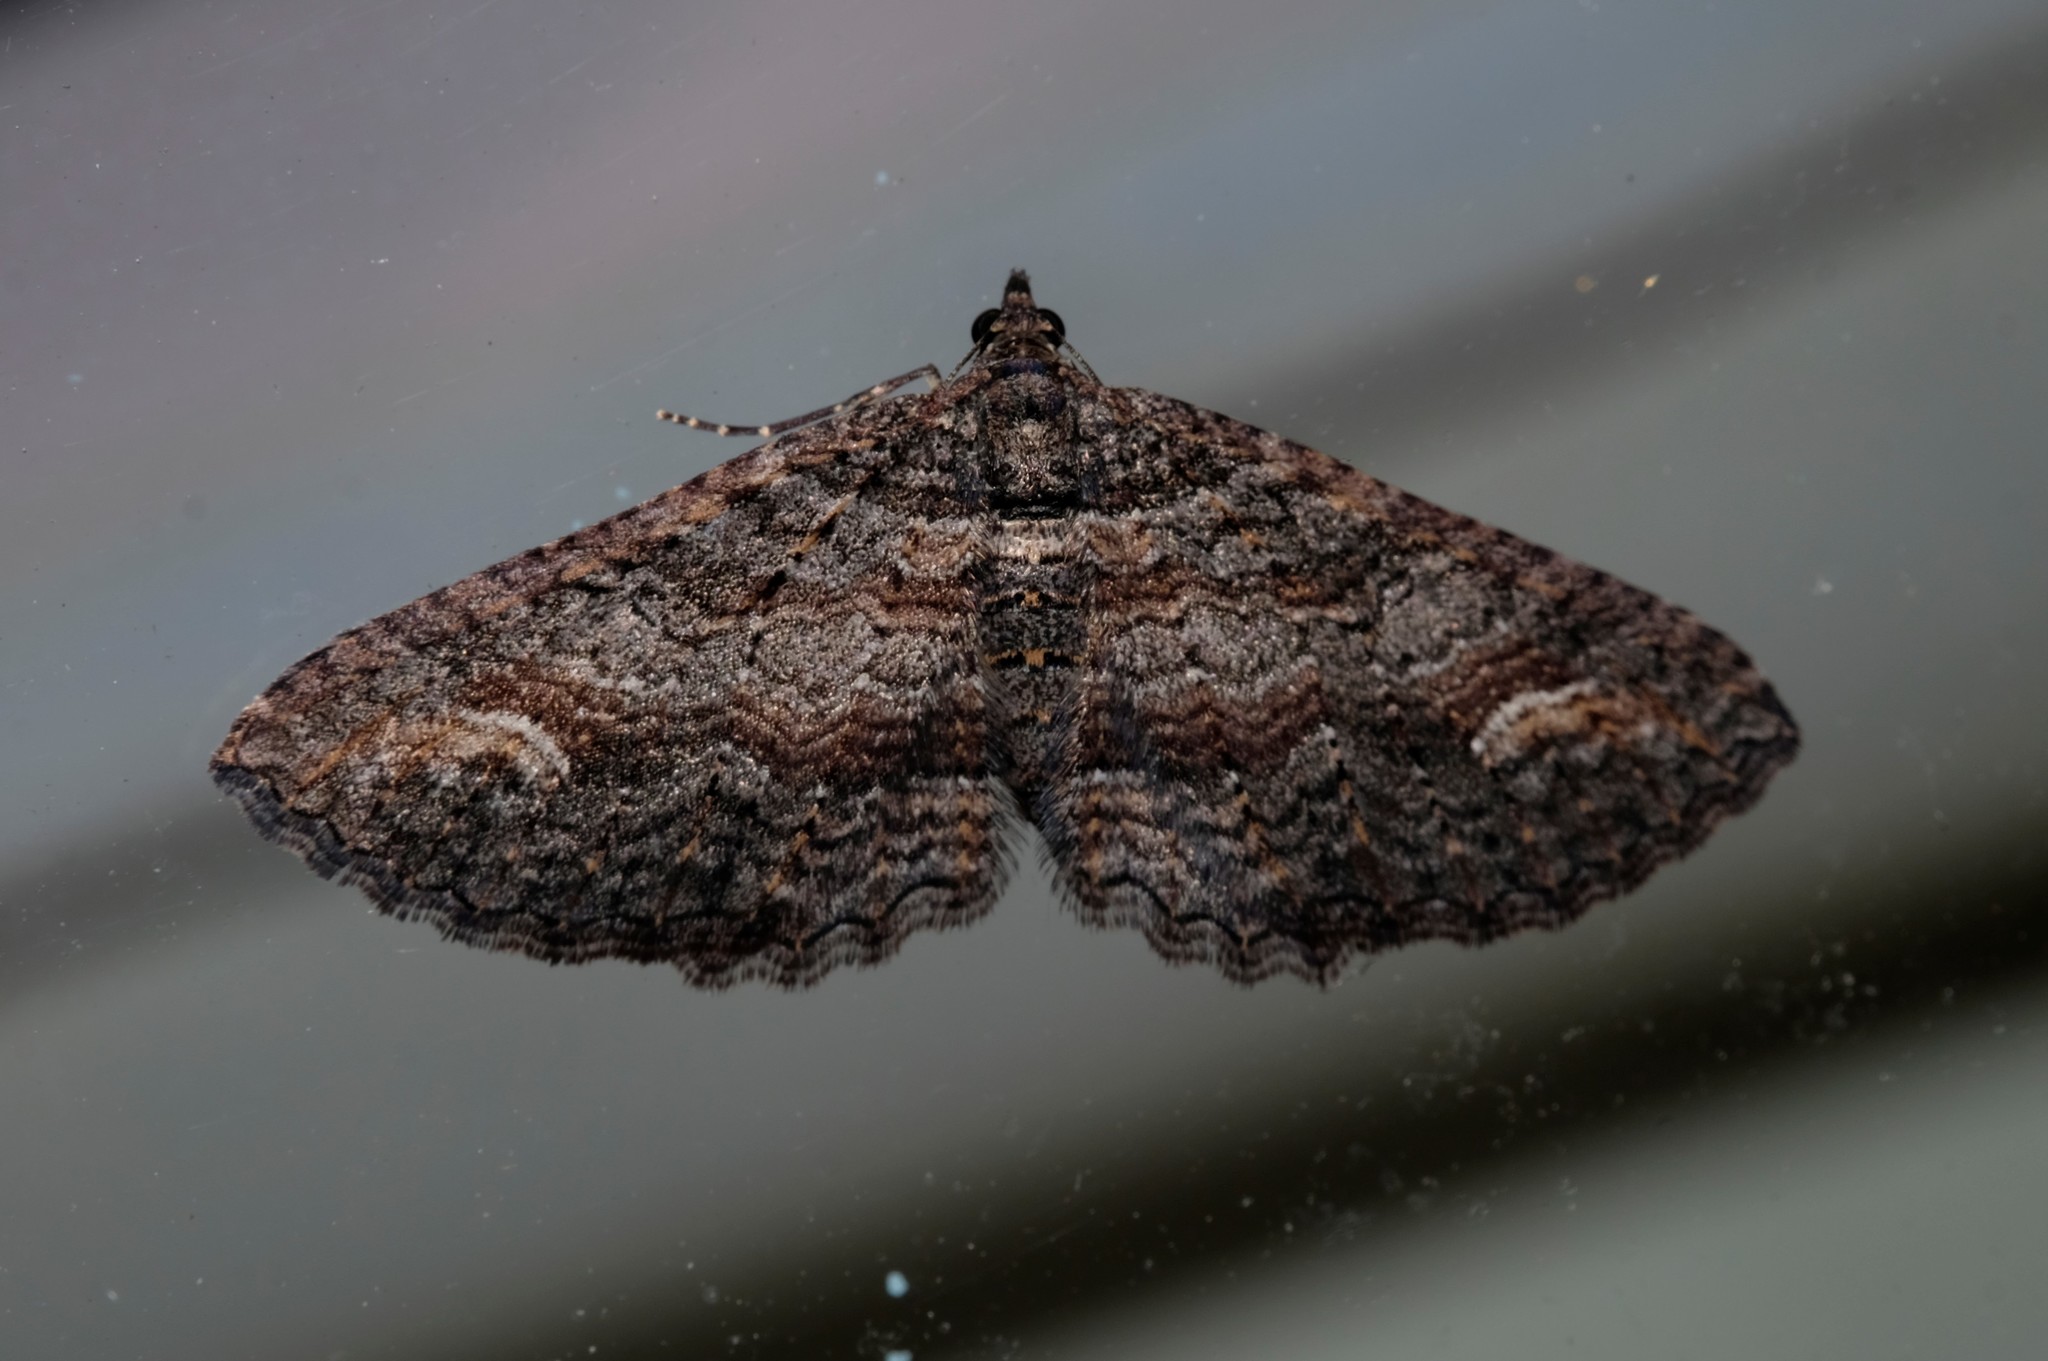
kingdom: Animalia
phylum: Arthropoda
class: Insecta
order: Lepidoptera
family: Geometridae
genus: Eupithecia
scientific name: Eupithecia Eucymatoge scotodes
